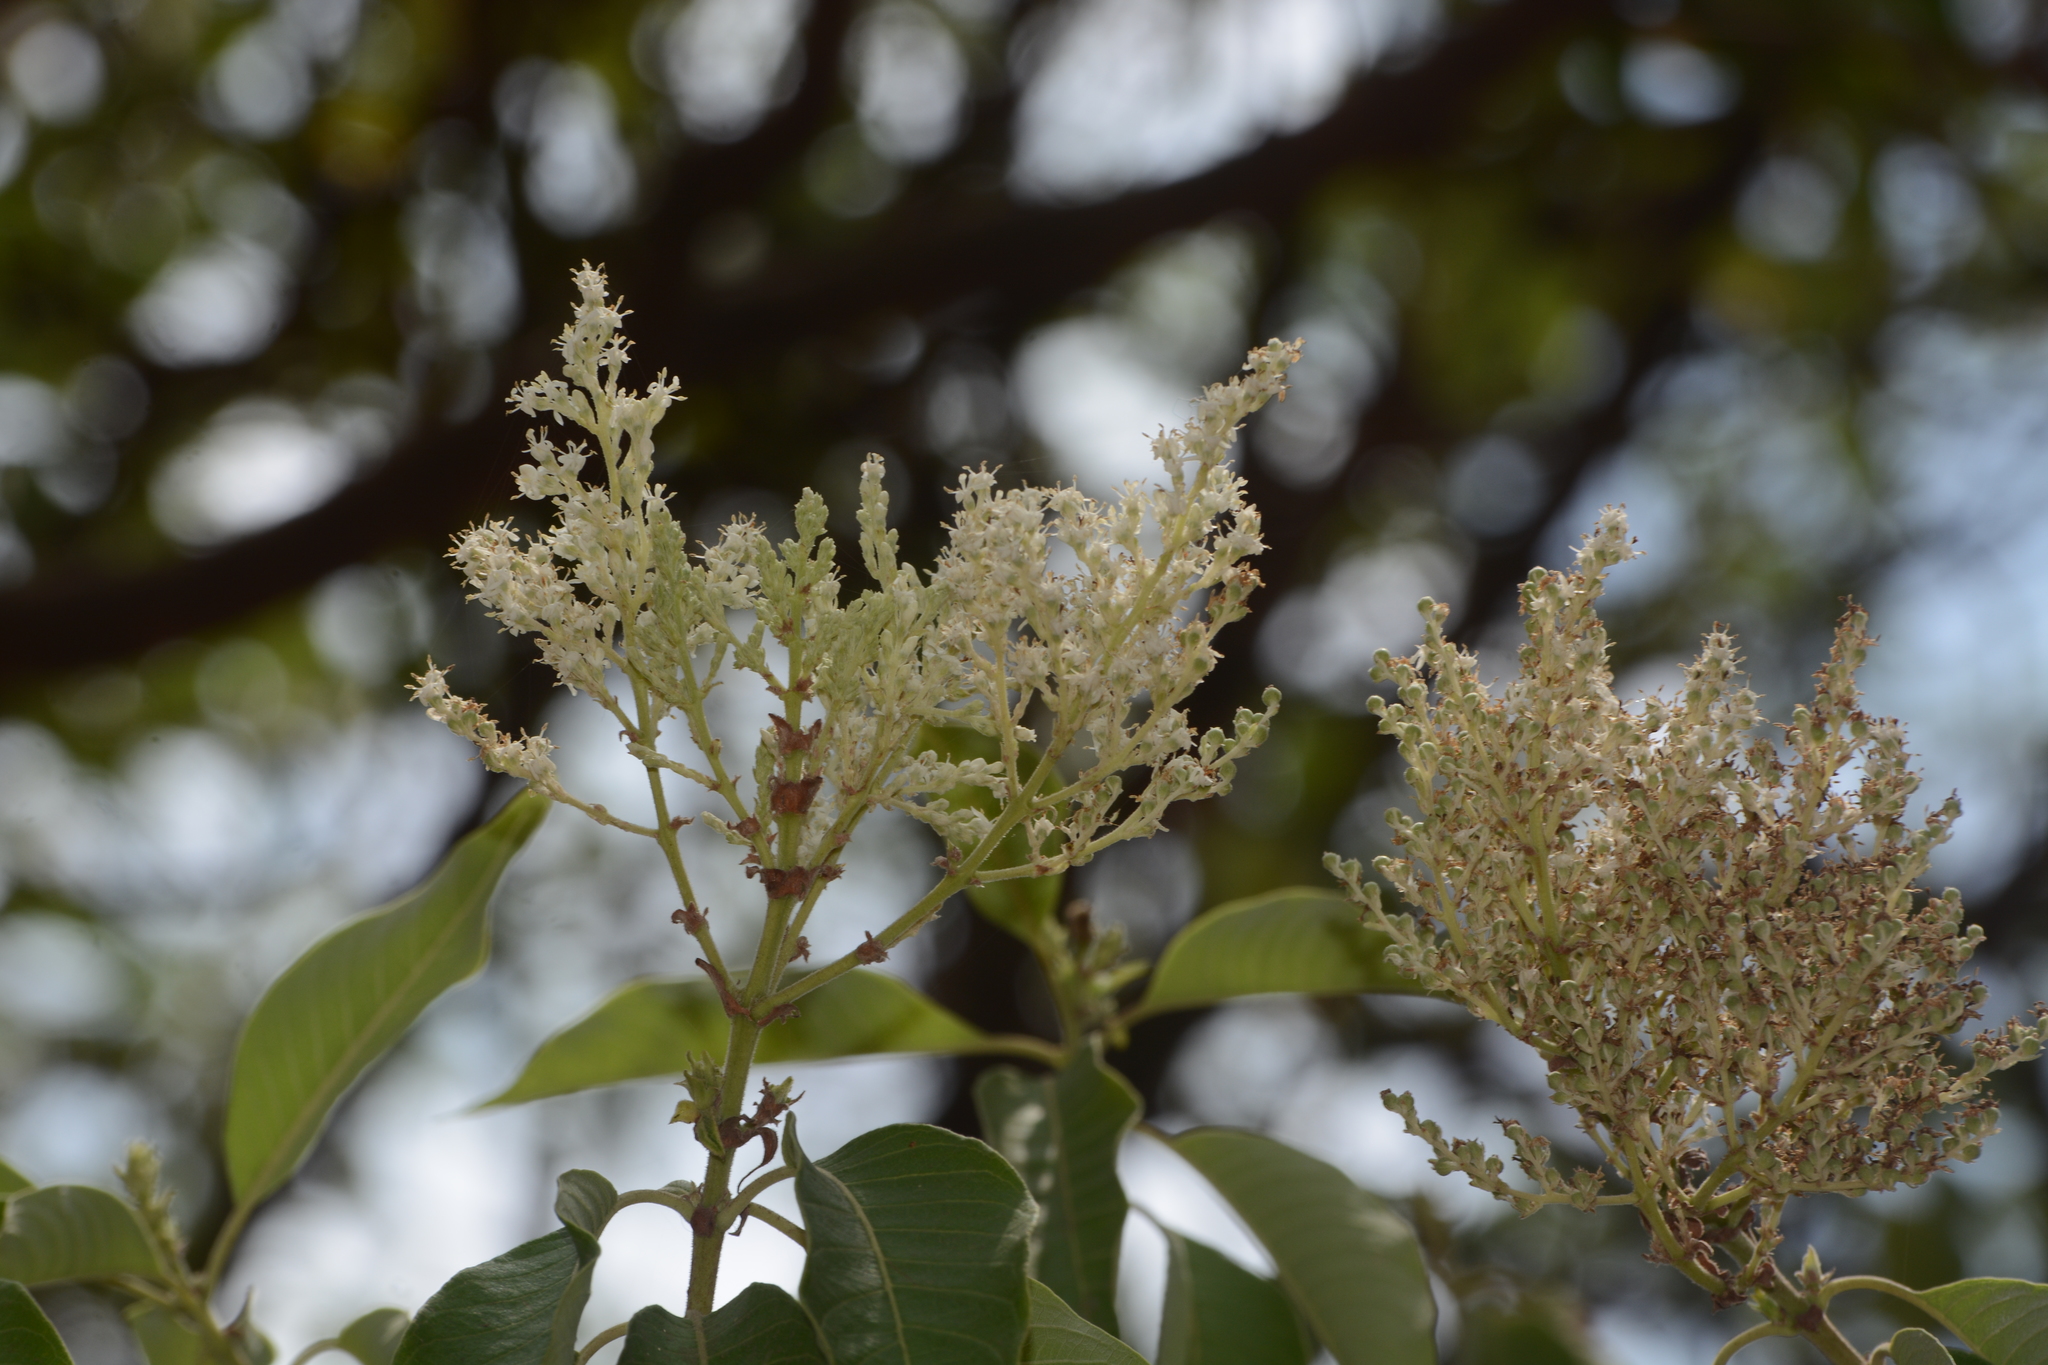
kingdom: Plantae
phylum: Tracheophyta
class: Magnoliopsida
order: Gentianales
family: Rubiaceae
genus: Wendlandia
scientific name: Wendlandia heynei
